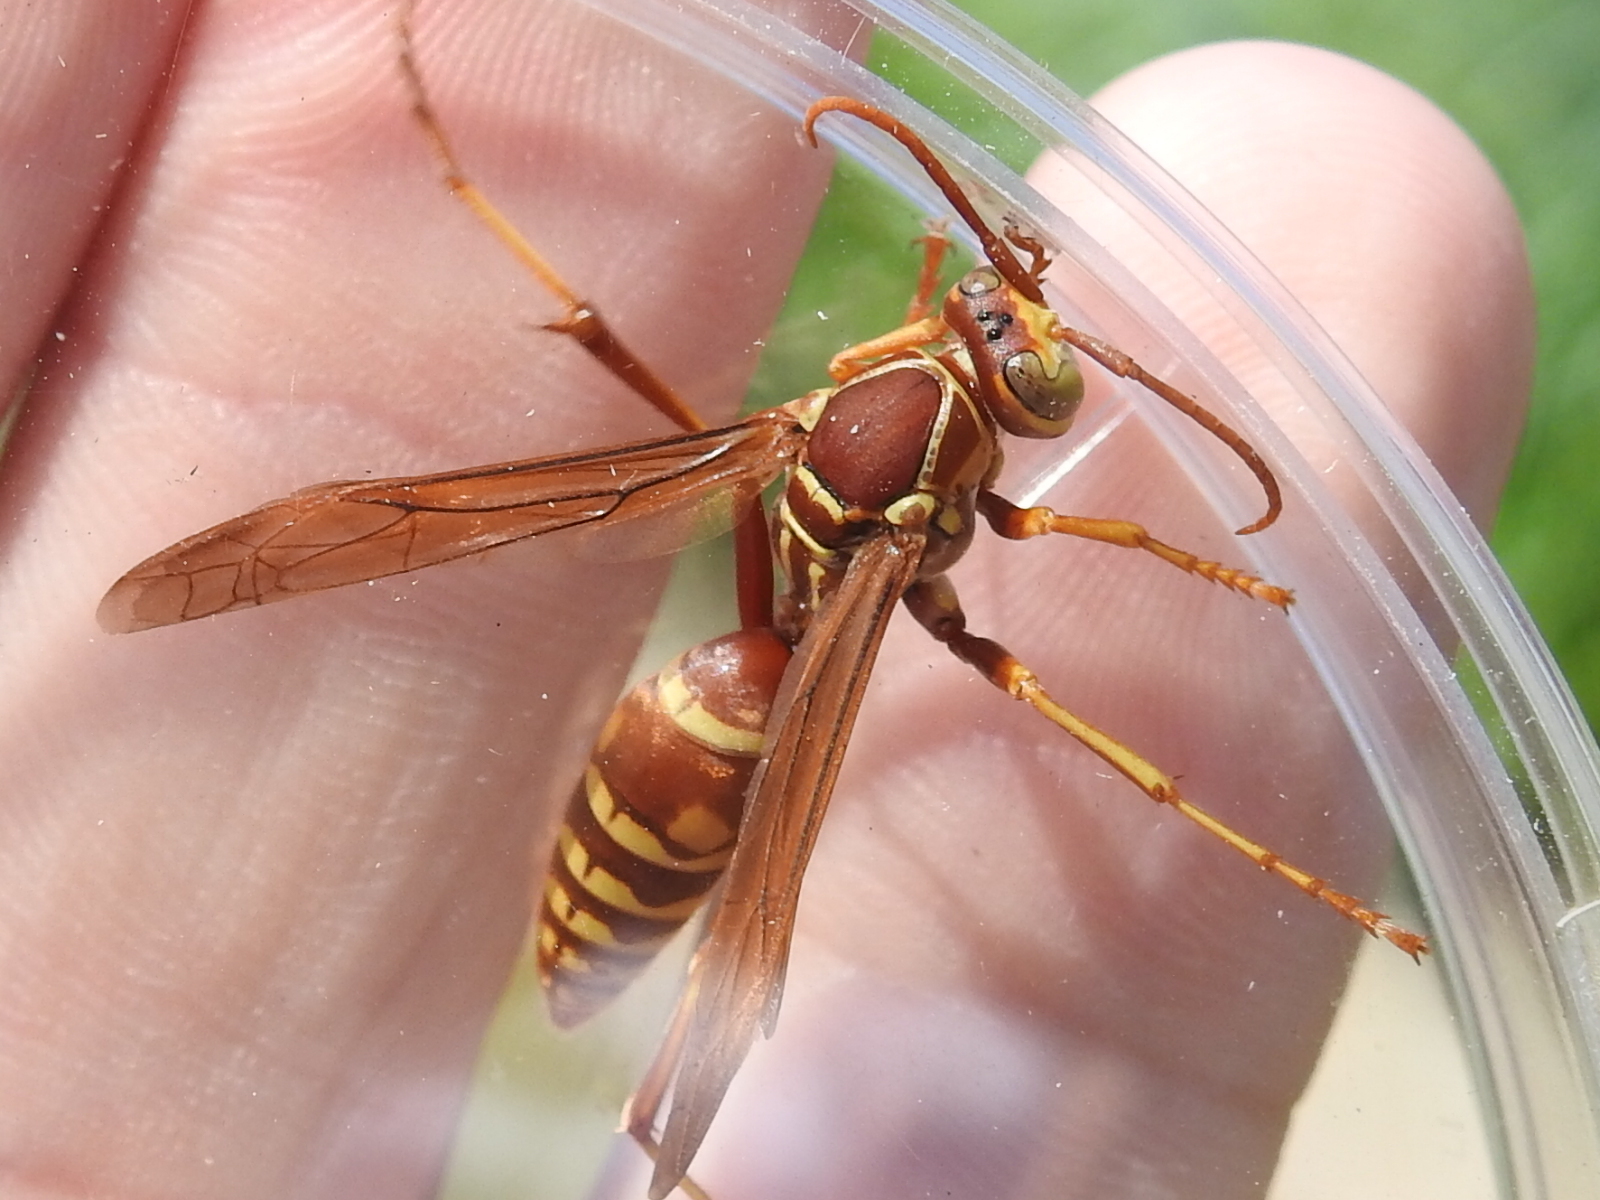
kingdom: Animalia
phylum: Arthropoda
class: Insecta
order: Hymenoptera
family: Eumenidae
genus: Polistes
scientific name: Polistes apachus
